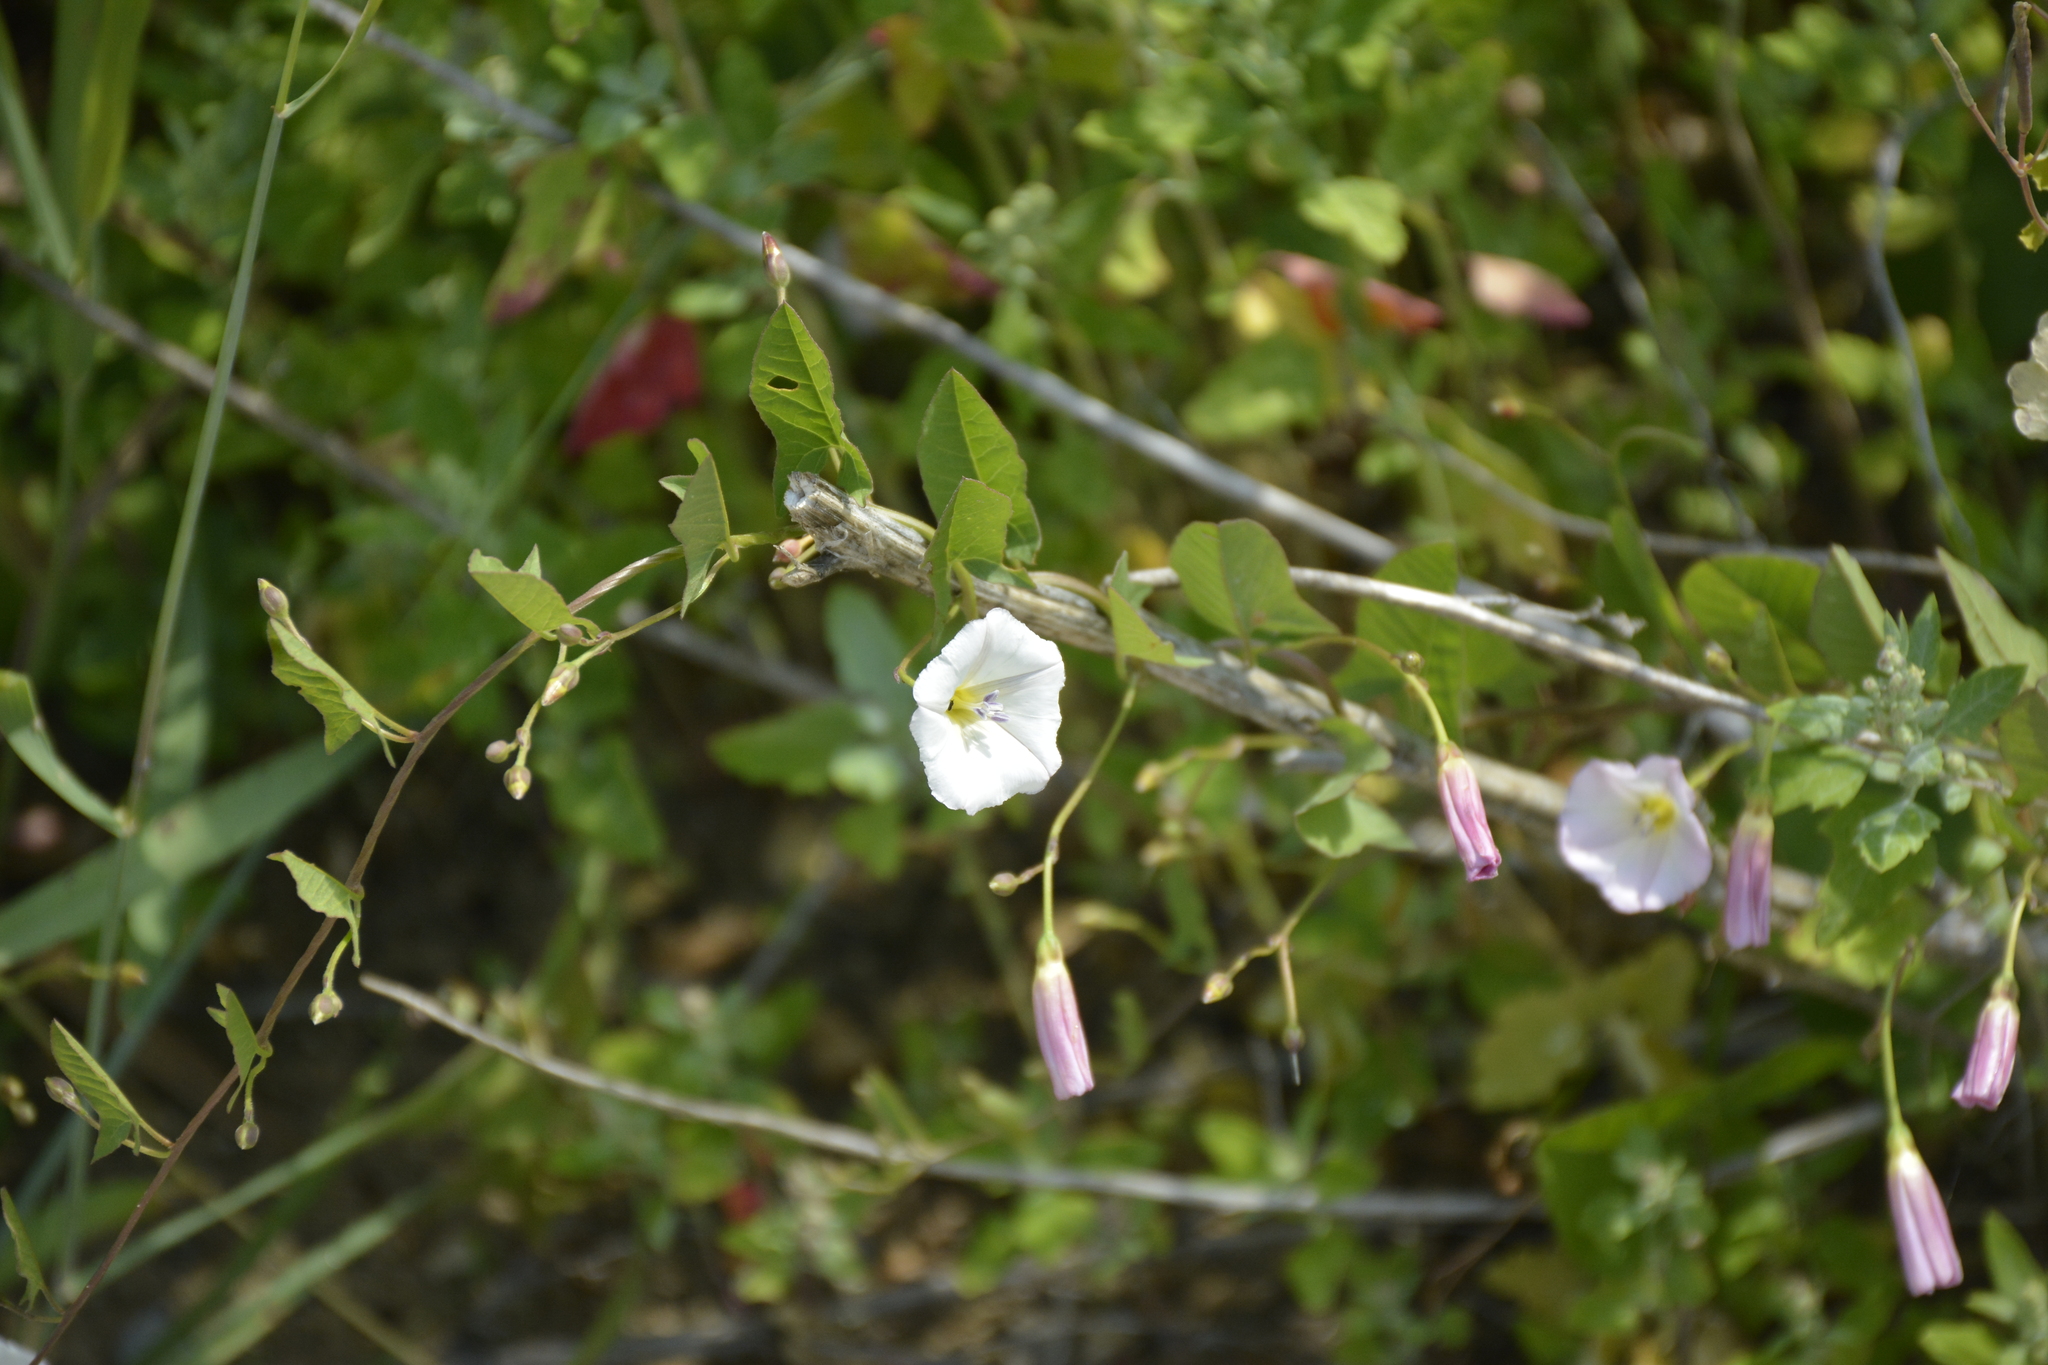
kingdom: Plantae
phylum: Tracheophyta
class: Magnoliopsida
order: Solanales
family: Convolvulaceae
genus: Convolvulus
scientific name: Convolvulus arvensis
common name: Field bindweed
